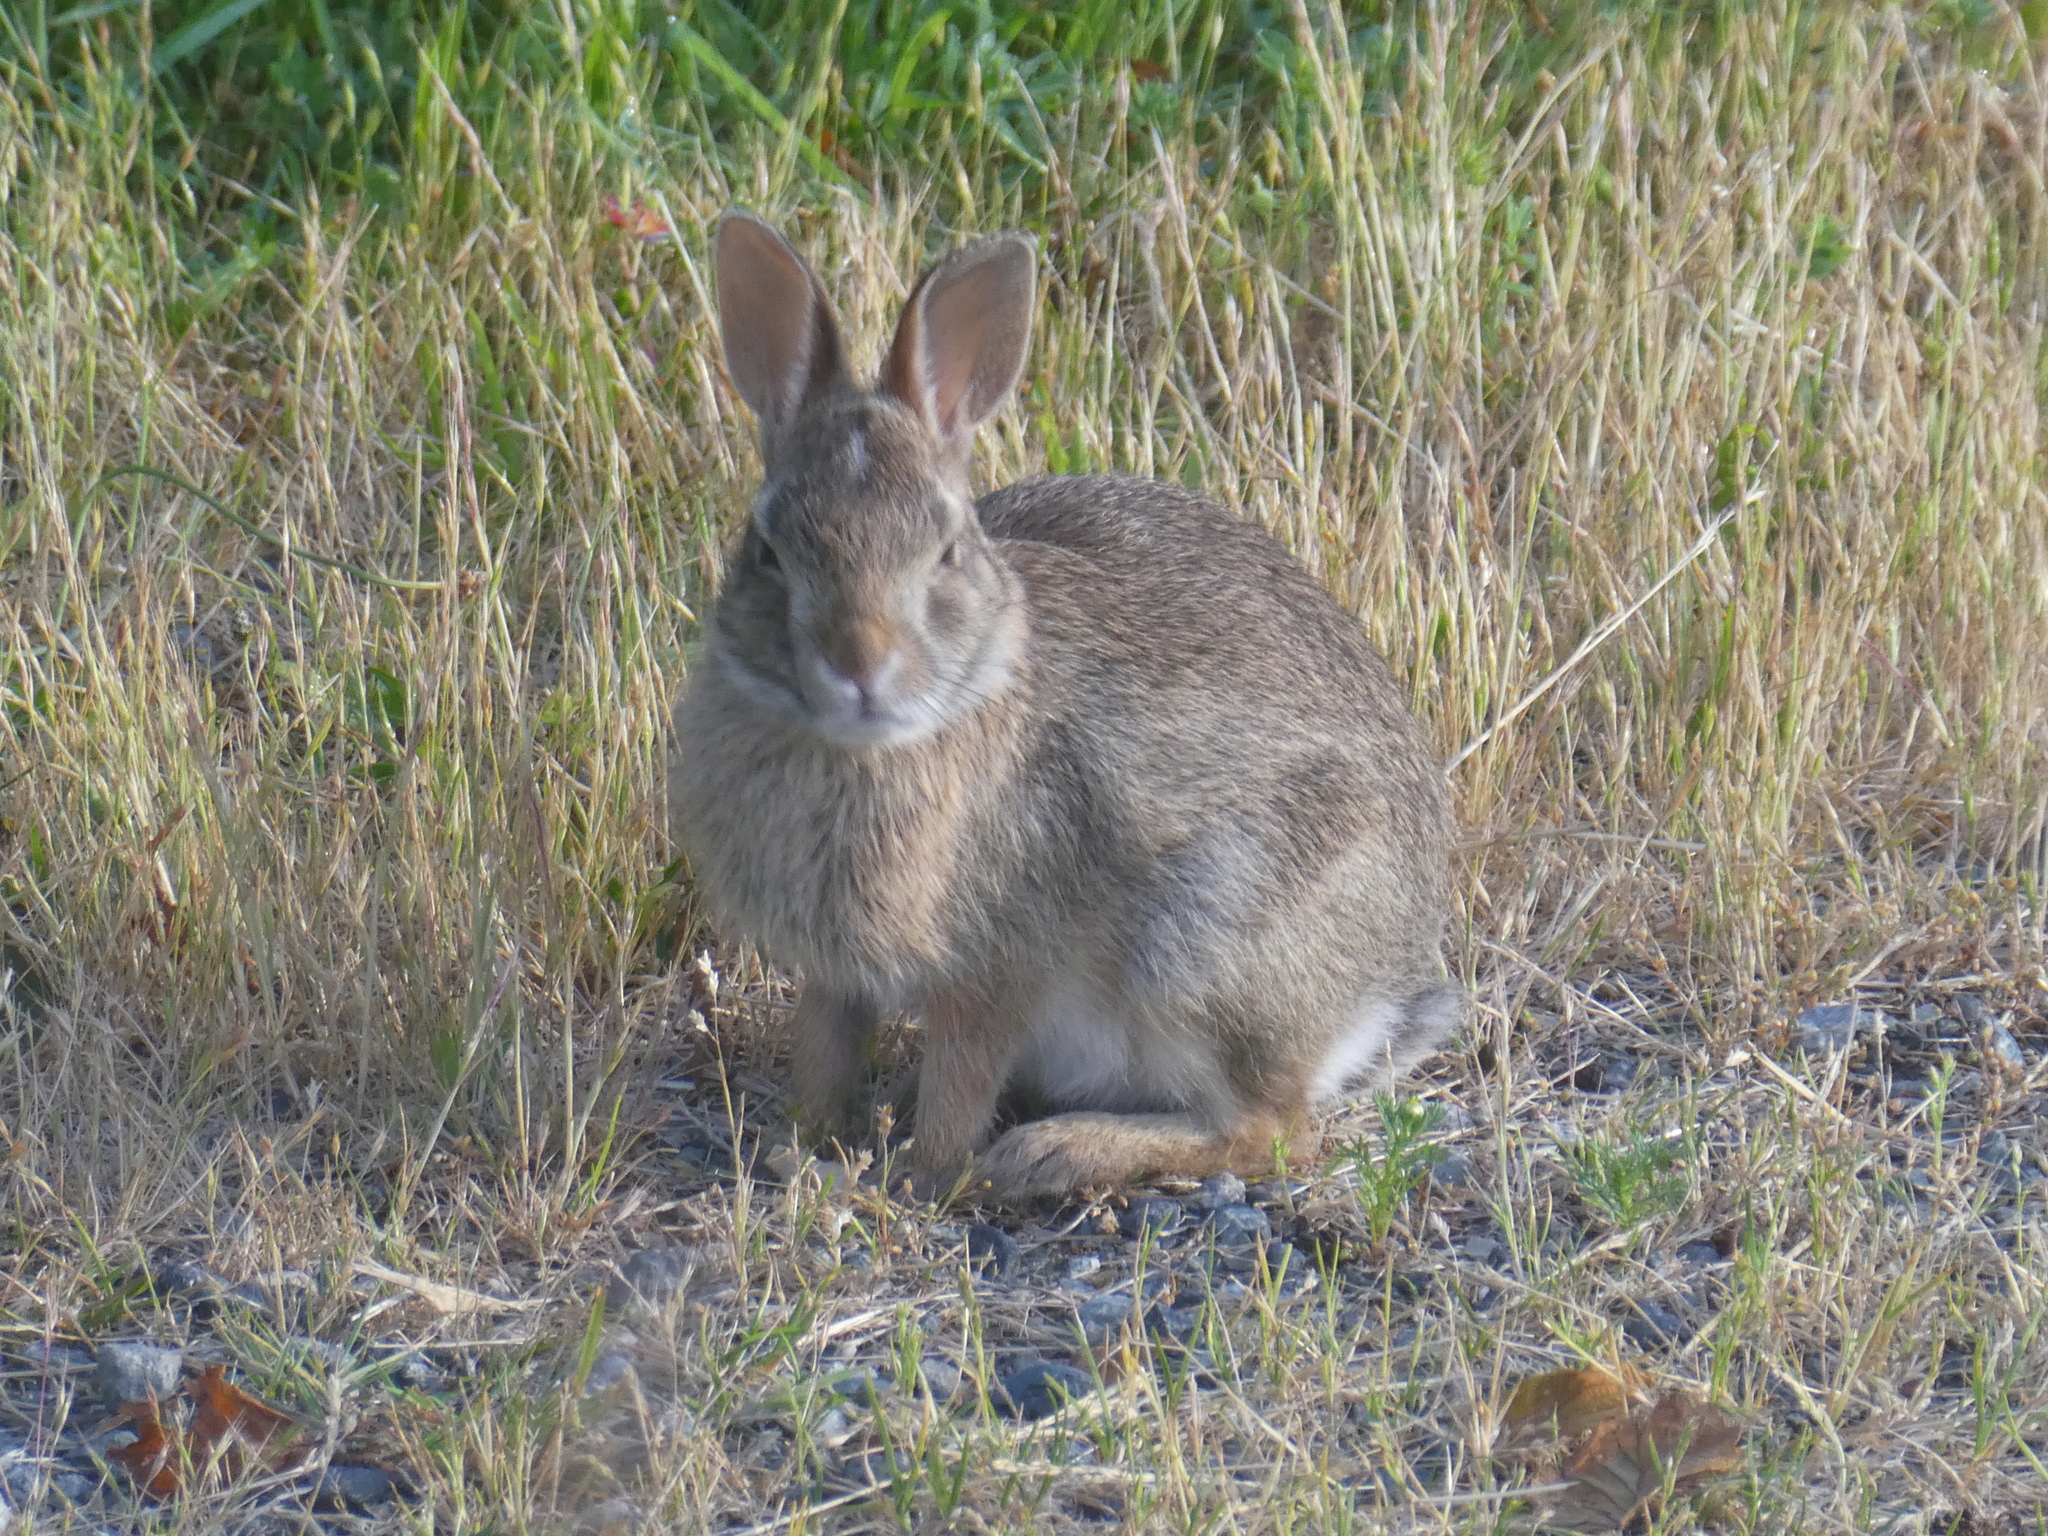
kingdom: Animalia
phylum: Chordata
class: Mammalia
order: Lagomorpha
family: Leporidae
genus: Sylvilagus
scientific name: Sylvilagus floridanus
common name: Eastern cottontail
